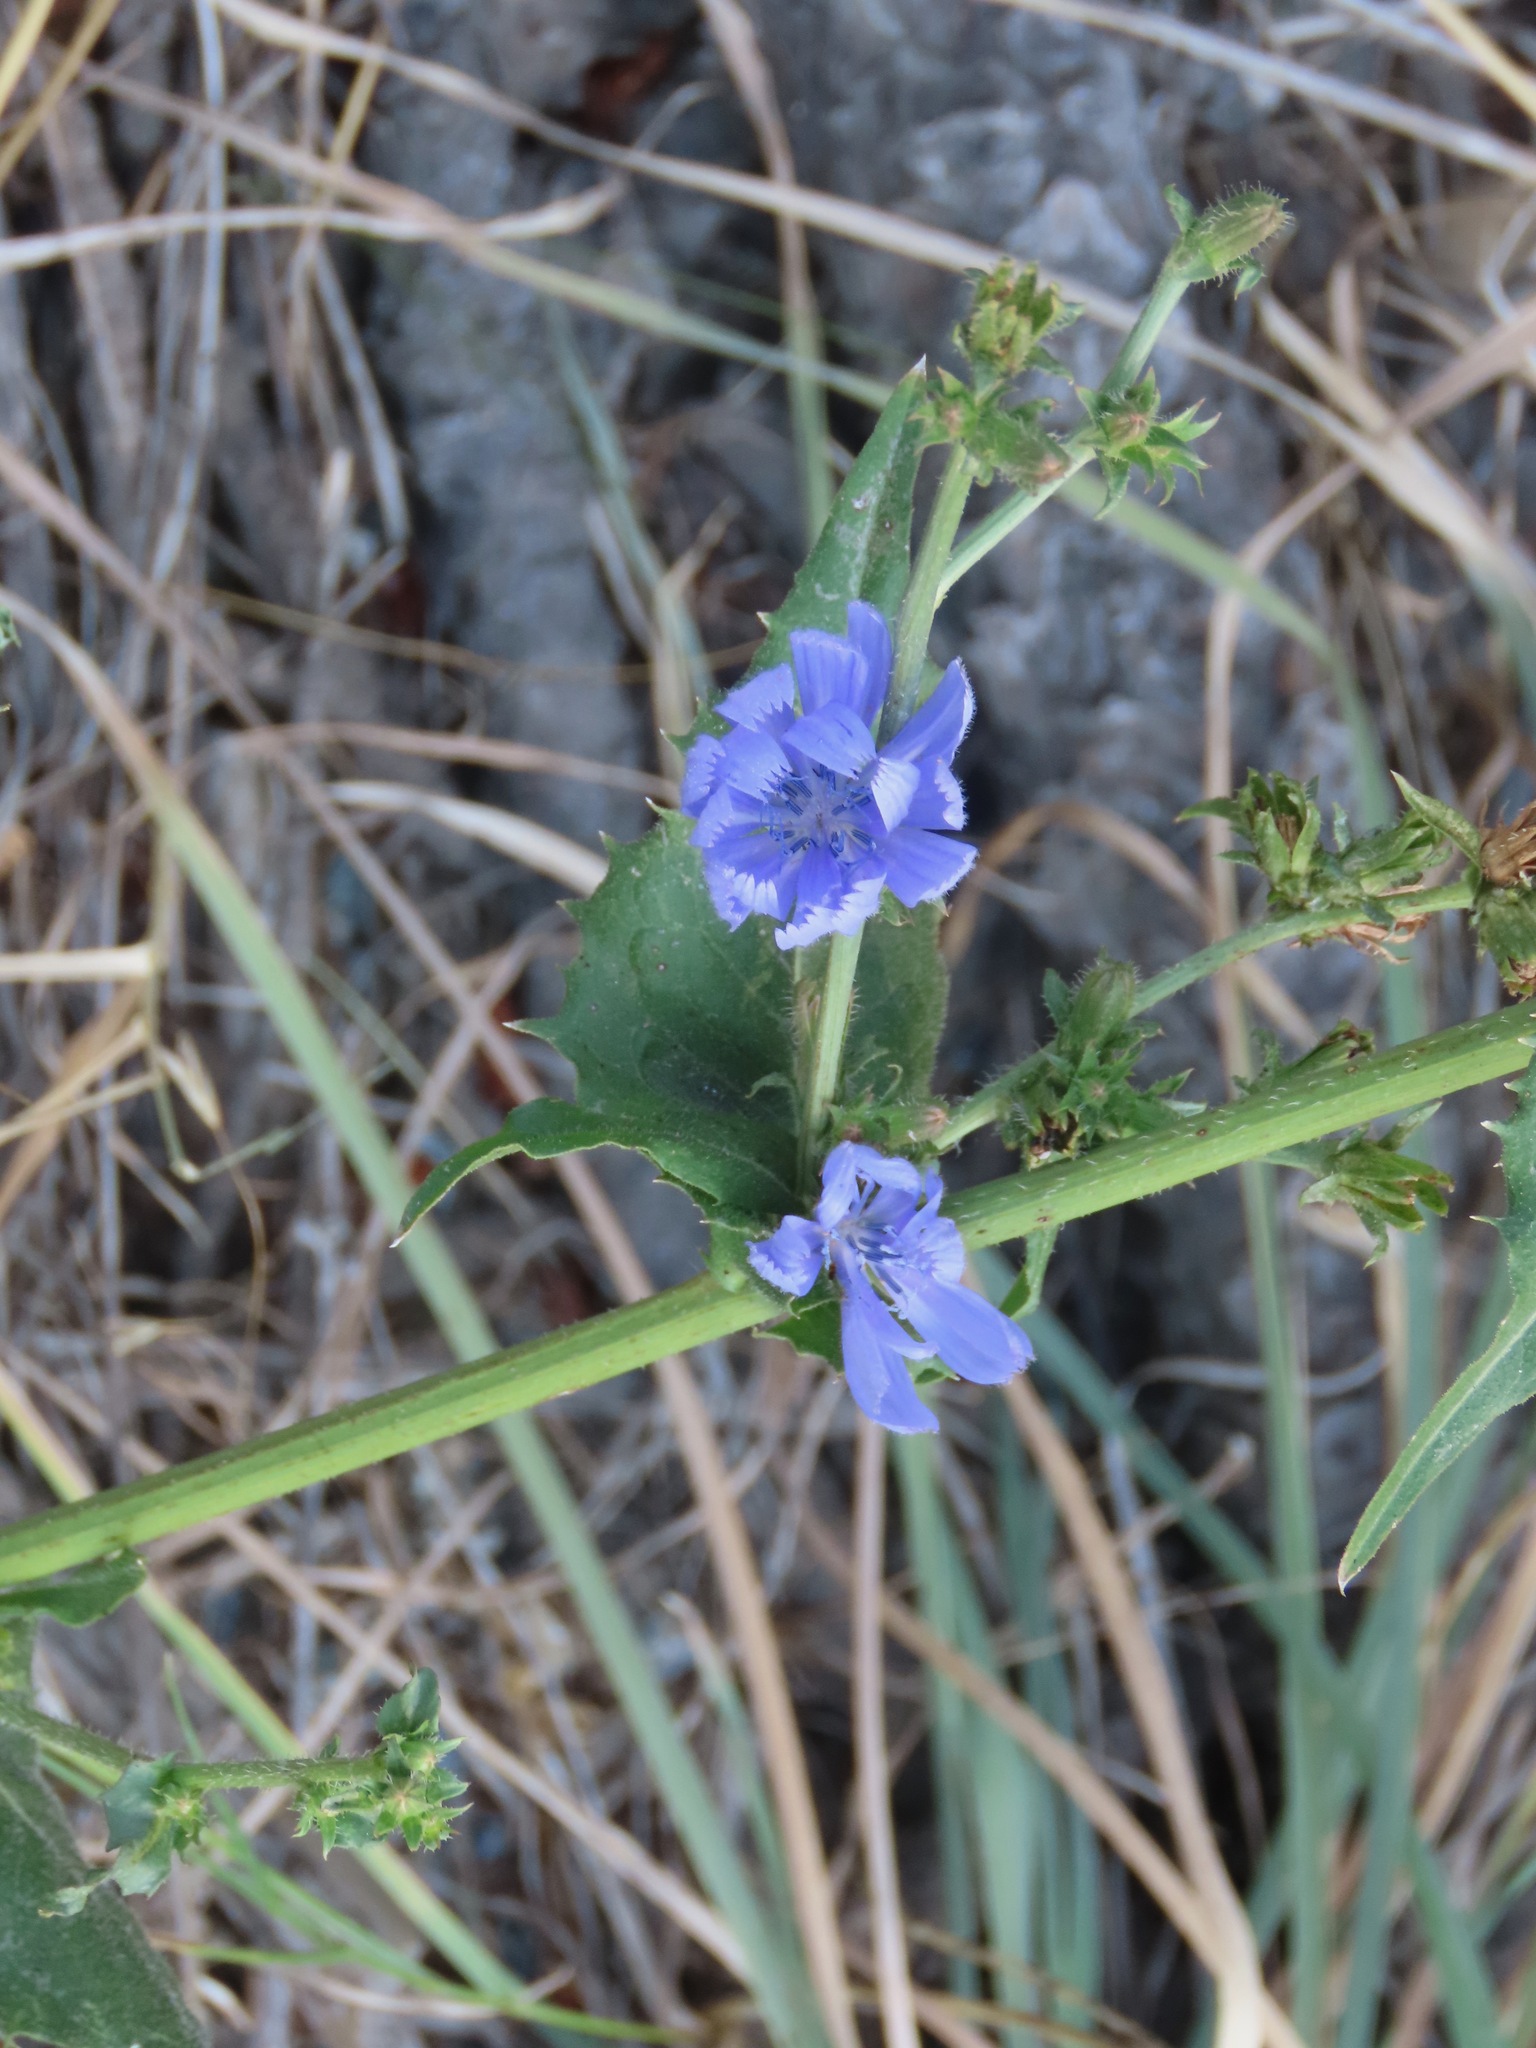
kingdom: Plantae
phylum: Tracheophyta
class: Magnoliopsida
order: Asterales
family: Asteraceae
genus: Cichorium
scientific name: Cichorium intybus
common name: Chicory
